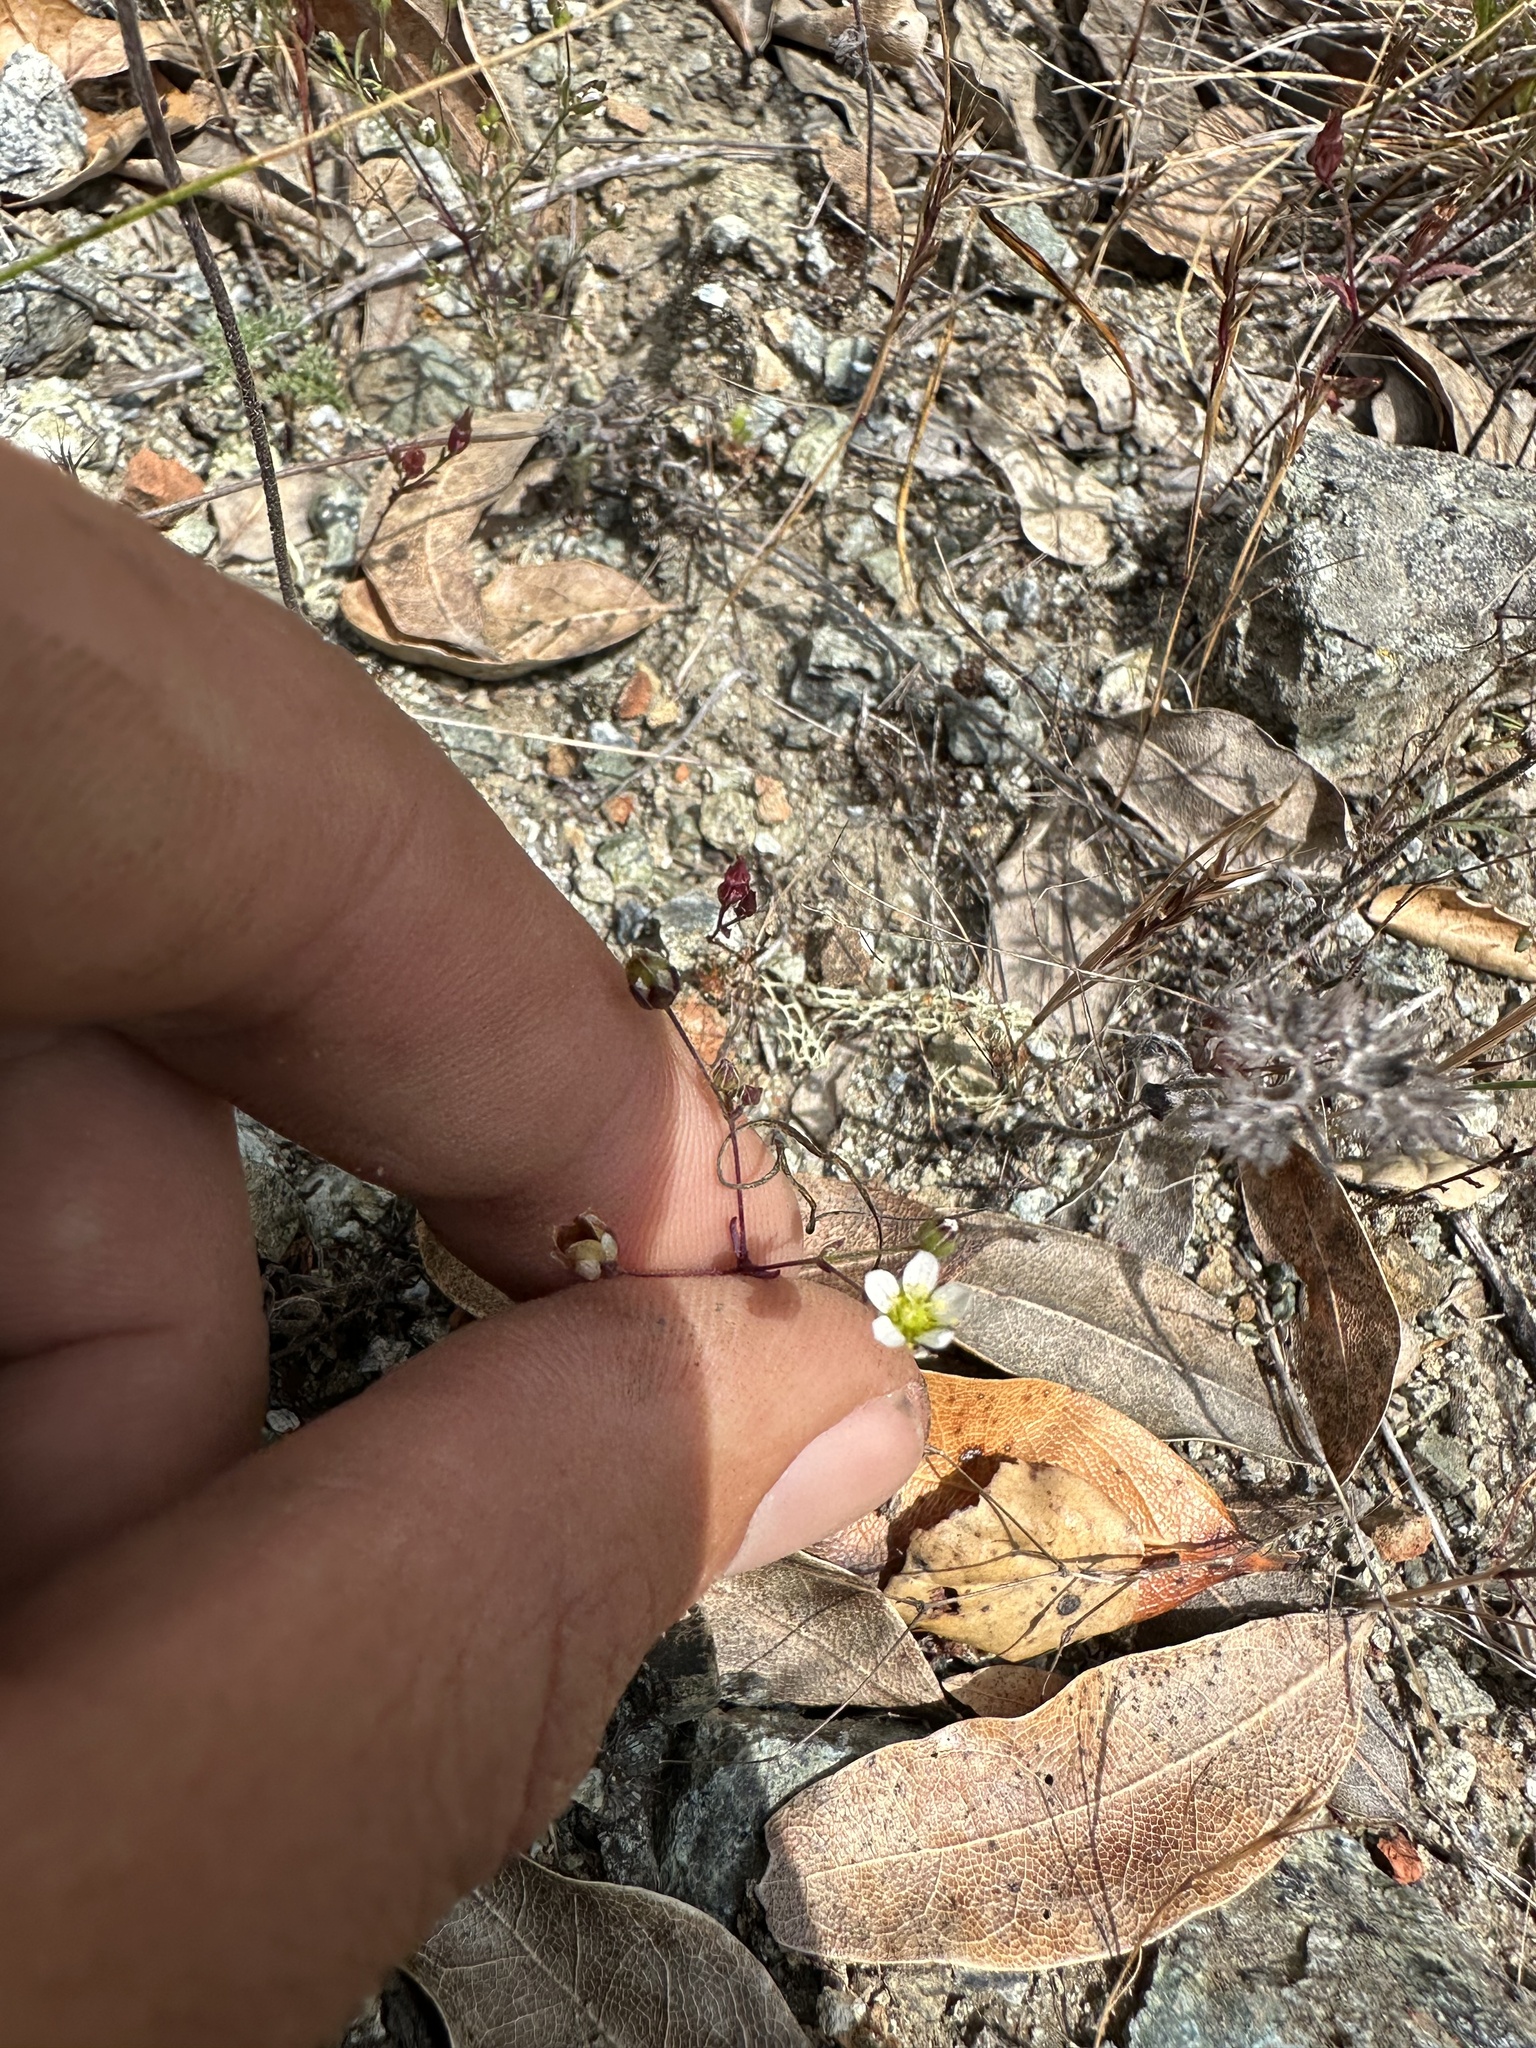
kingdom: Plantae
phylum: Tracheophyta
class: Magnoliopsida
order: Caryophyllales
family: Caryophyllaceae
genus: Sabulina
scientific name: Sabulina douglasii
